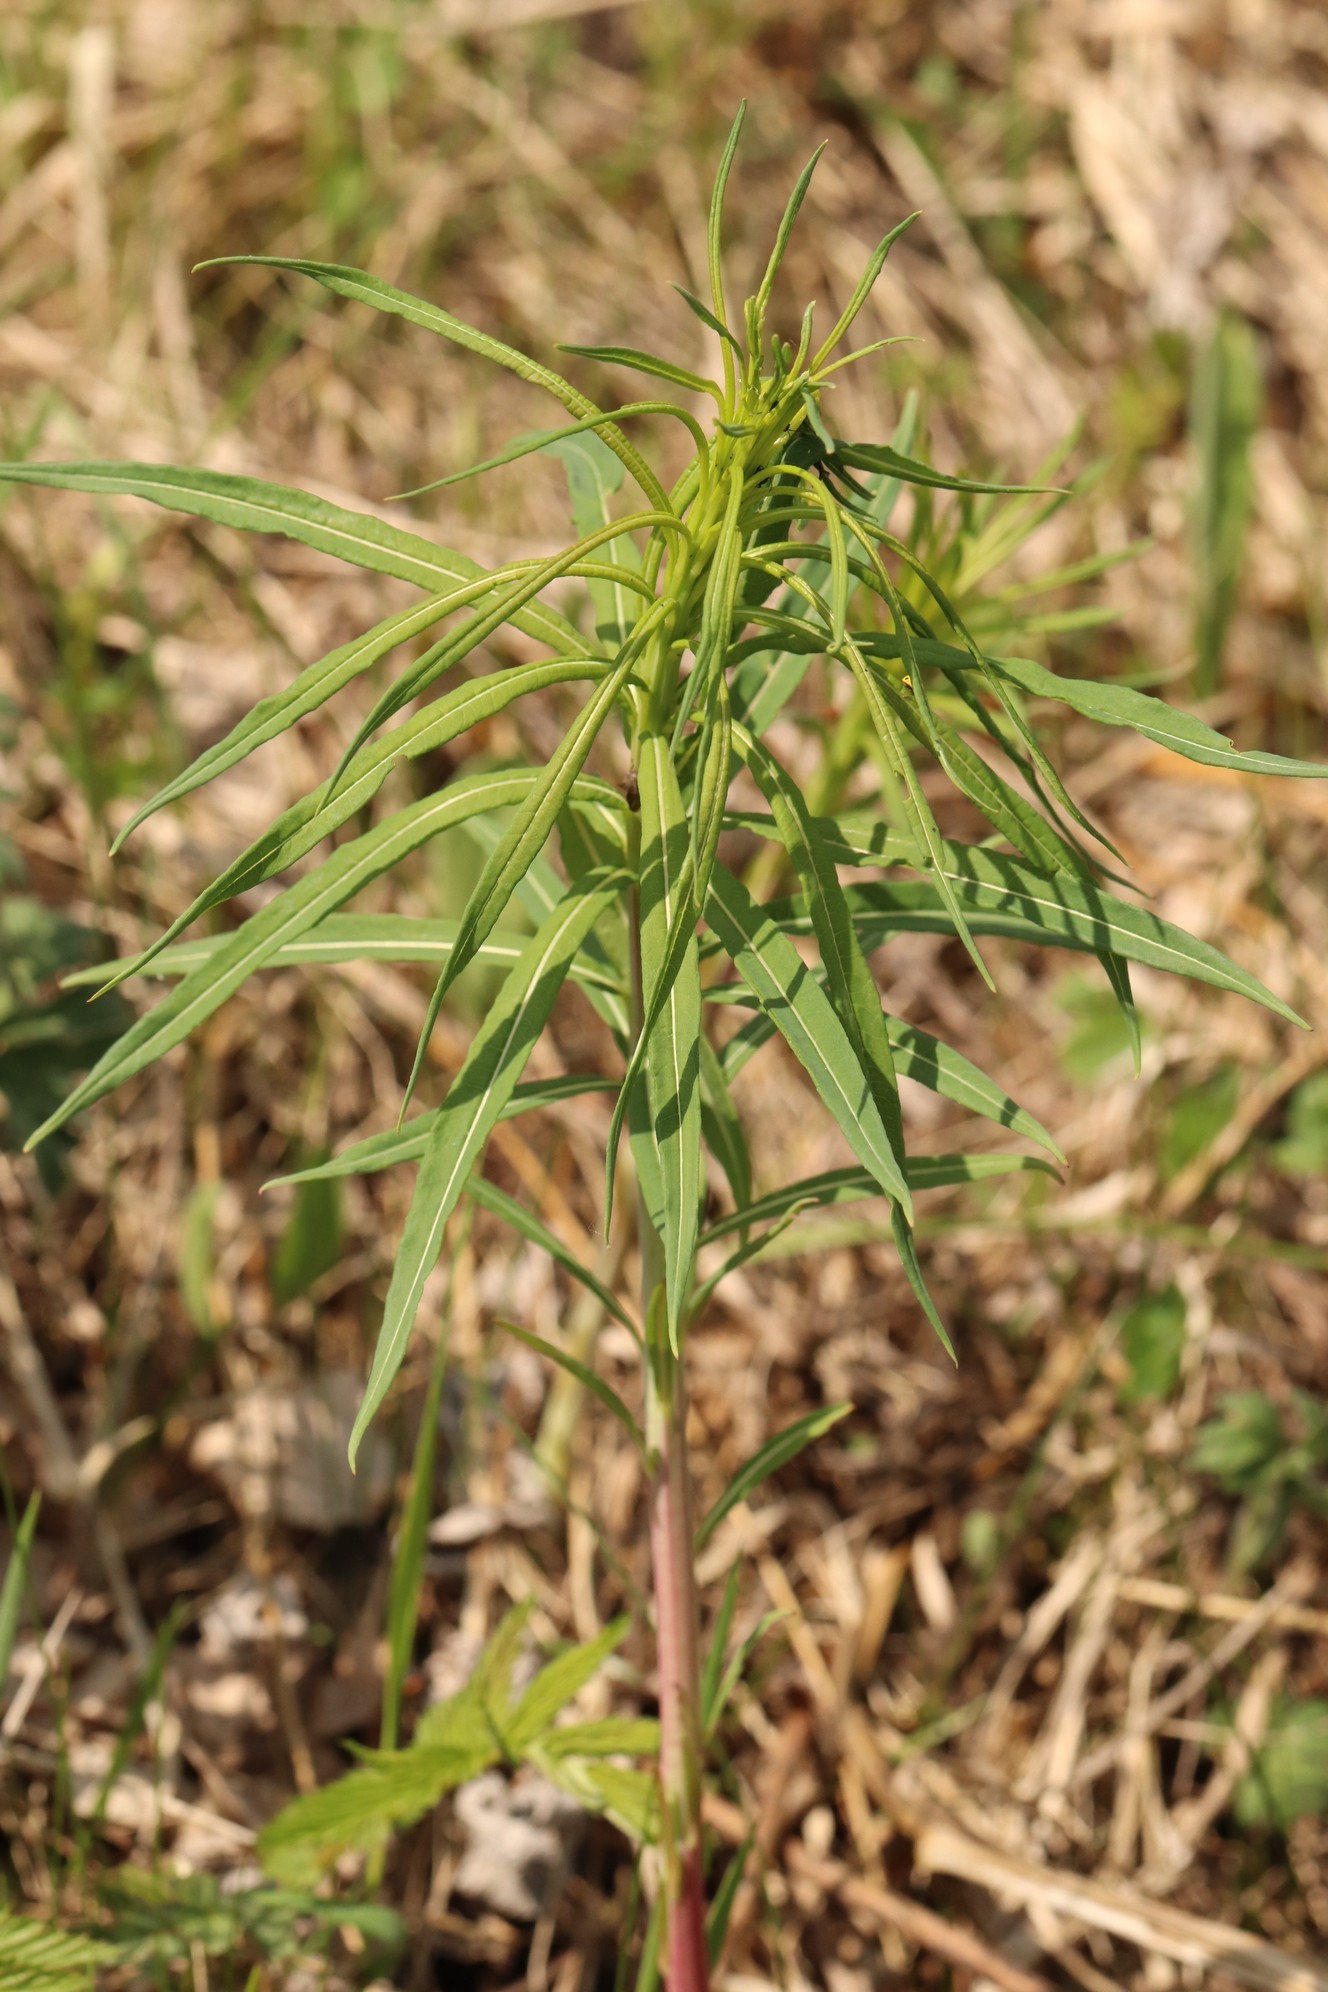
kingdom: Plantae
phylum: Tracheophyta
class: Magnoliopsida
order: Myrtales
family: Onagraceae
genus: Chamaenerion
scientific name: Chamaenerion angustifolium
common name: Fireweed
